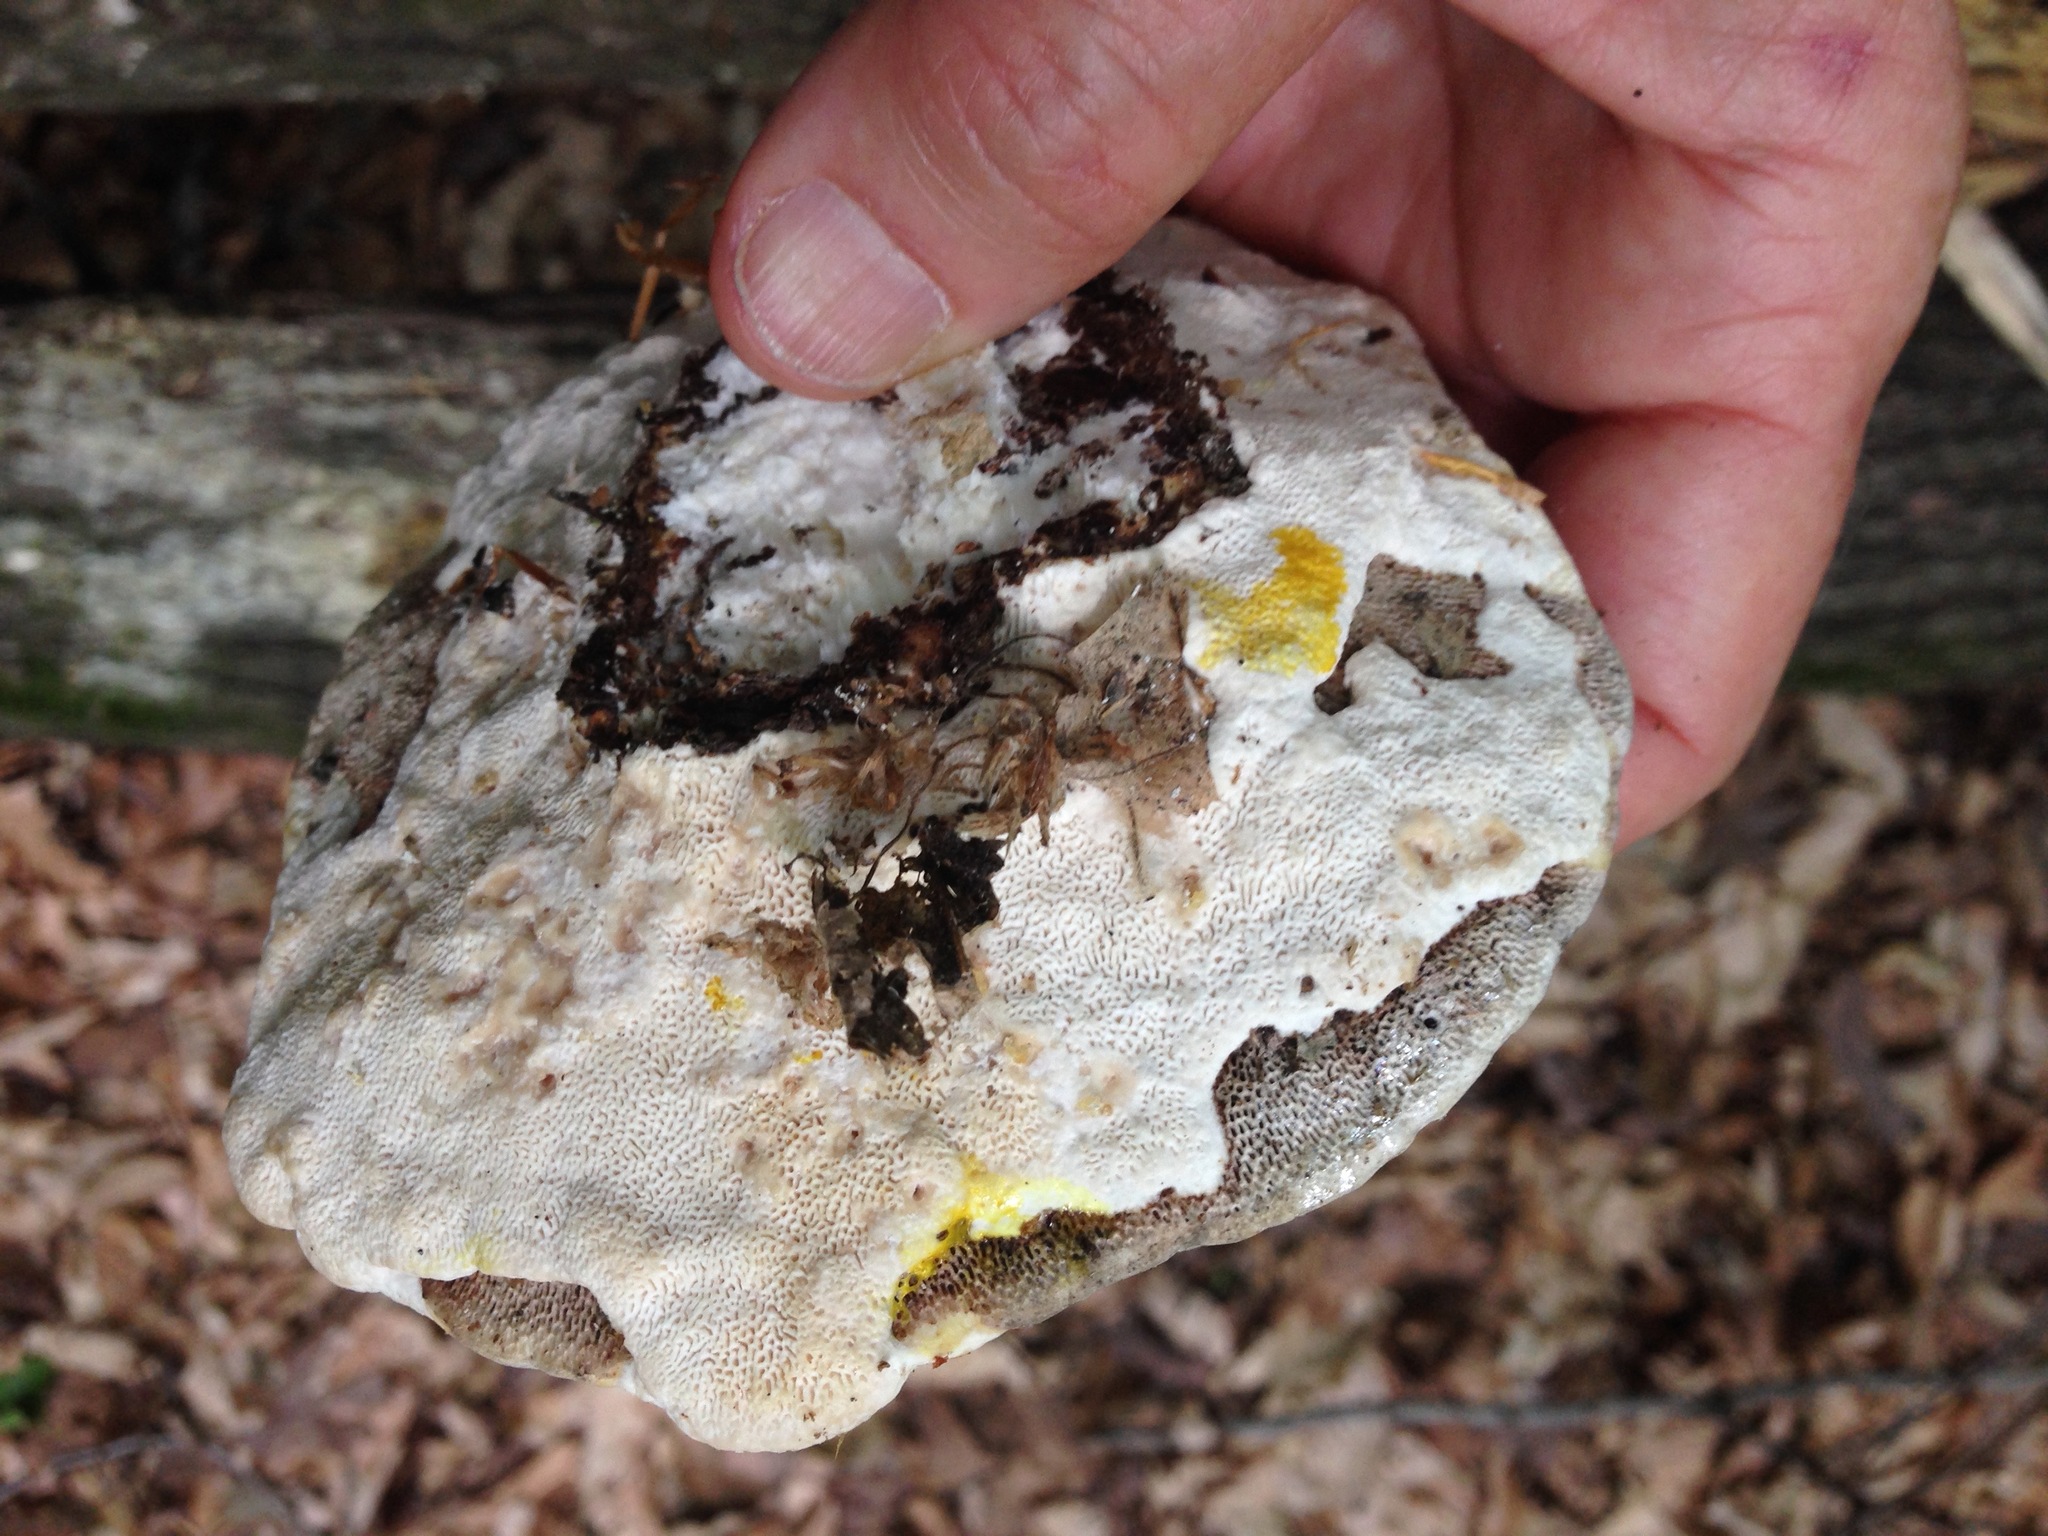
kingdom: Fungi
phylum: Basidiomycota
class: Agaricomycetes
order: Polyporales
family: Polyporaceae
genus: Trametes
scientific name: Trametes gibbosa
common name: Lumpy bracket
